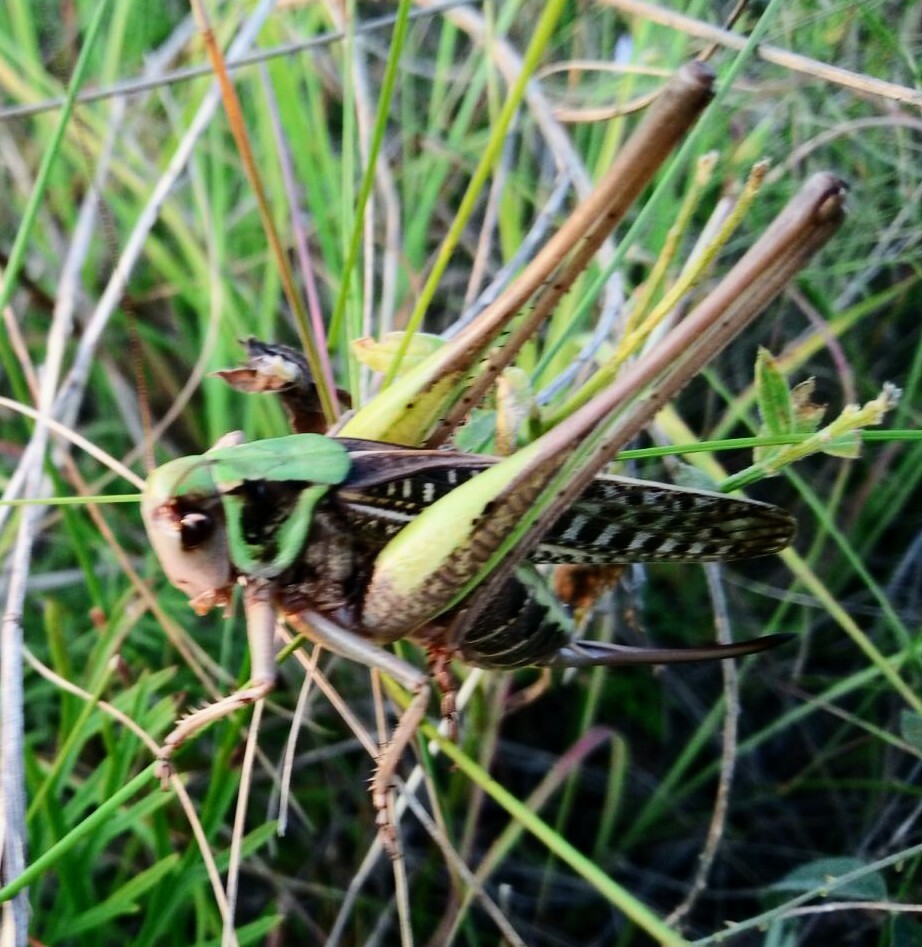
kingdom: Animalia
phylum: Arthropoda
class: Insecta
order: Orthoptera
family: Tettigoniidae
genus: Decticus
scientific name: Decticus verrucivorus
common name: Wart-biter
